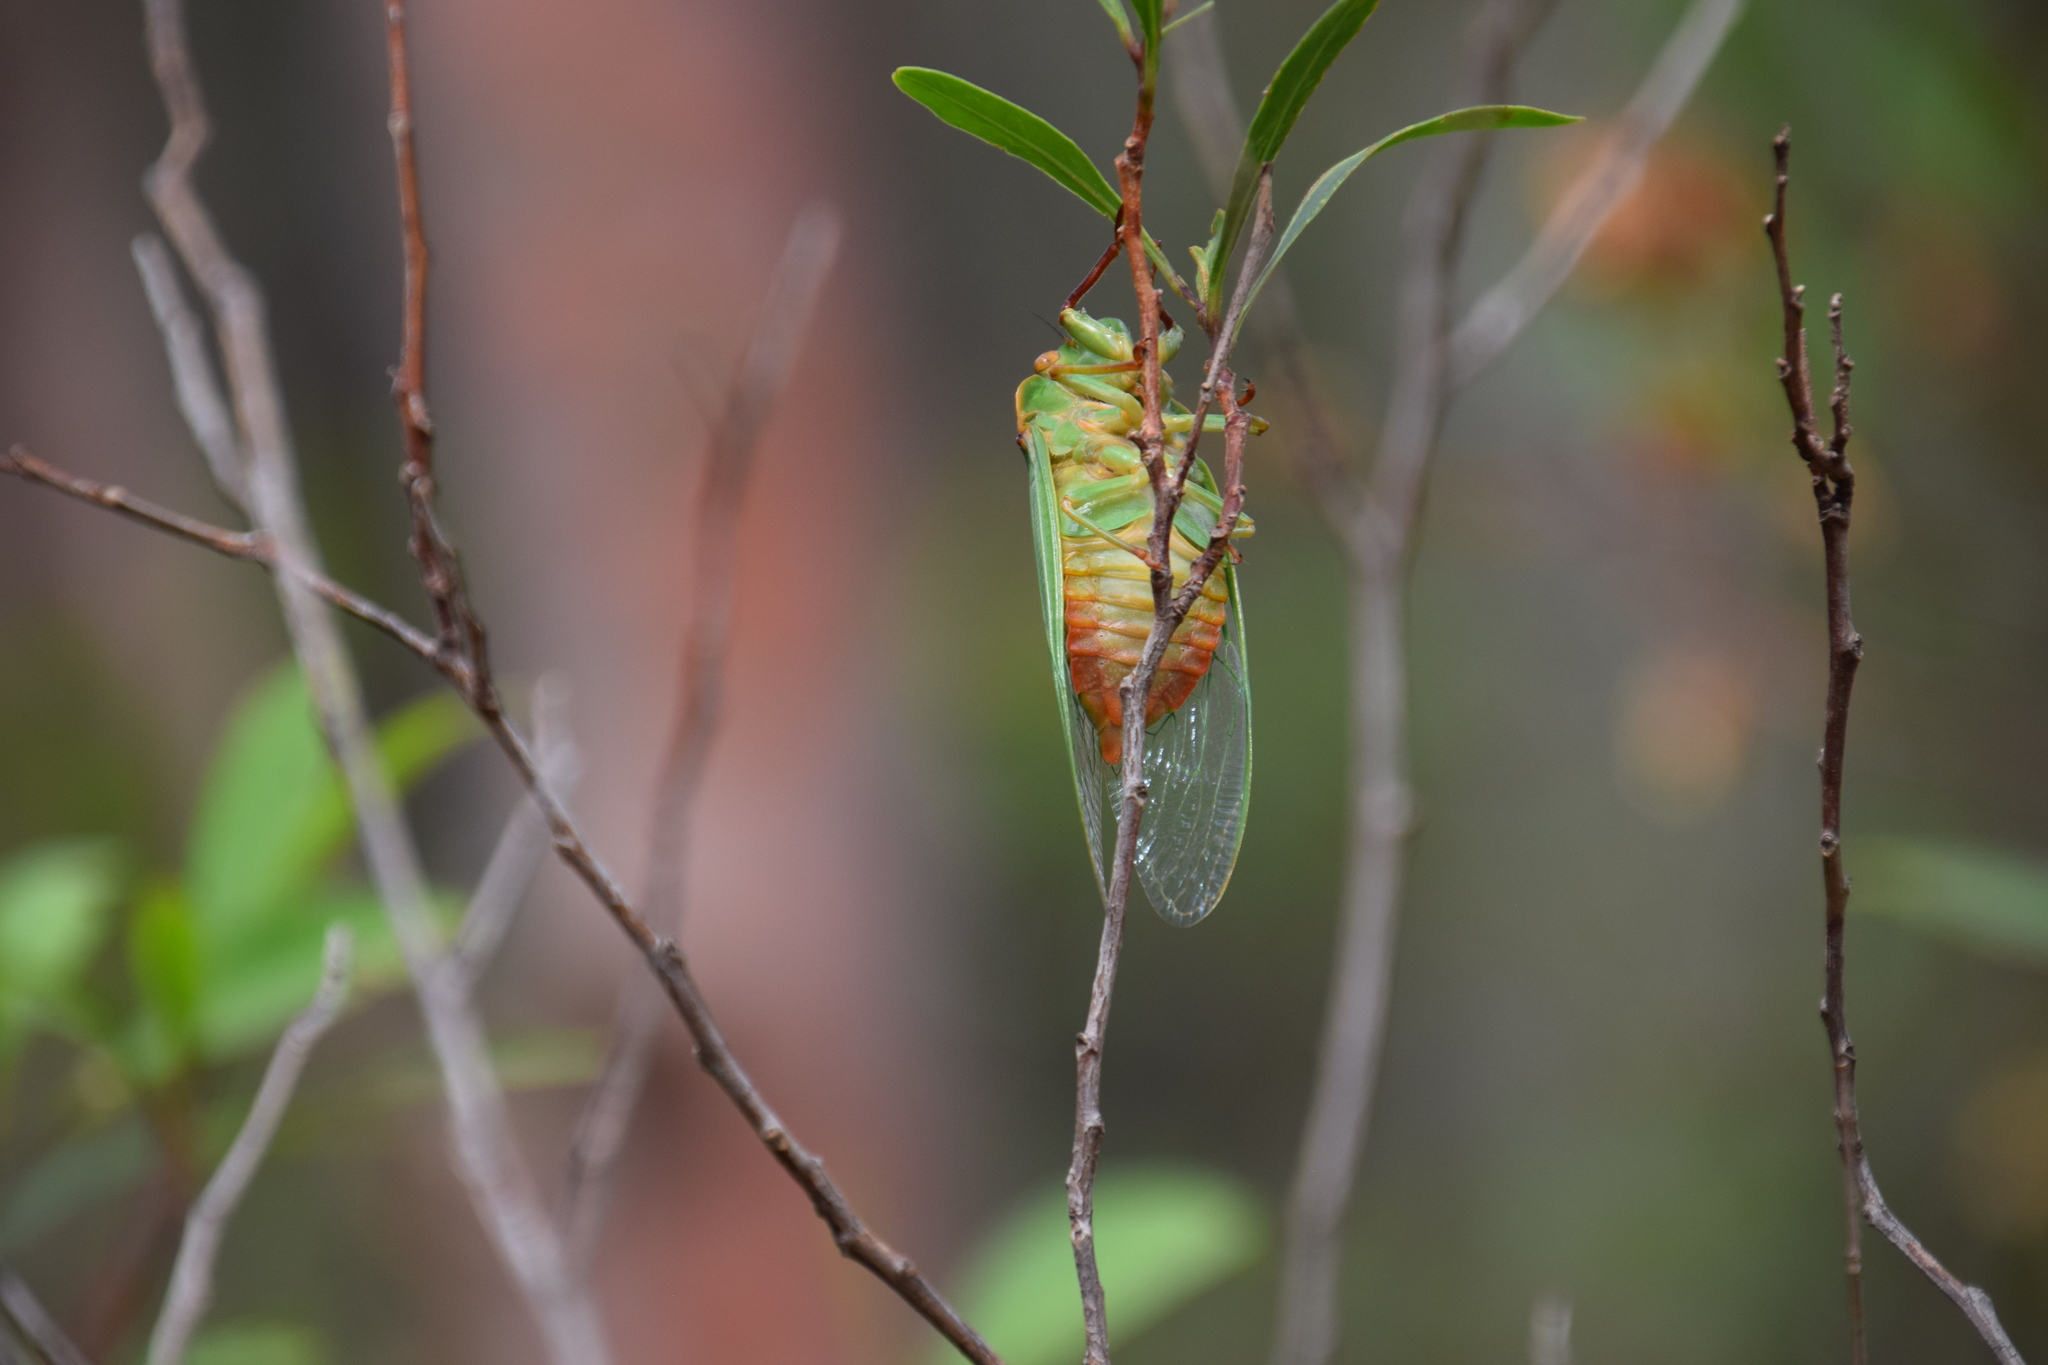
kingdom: Animalia
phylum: Arthropoda
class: Insecta
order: Hemiptera
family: Cicadidae
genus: Cyclochila
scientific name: Cyclochila australasiae
